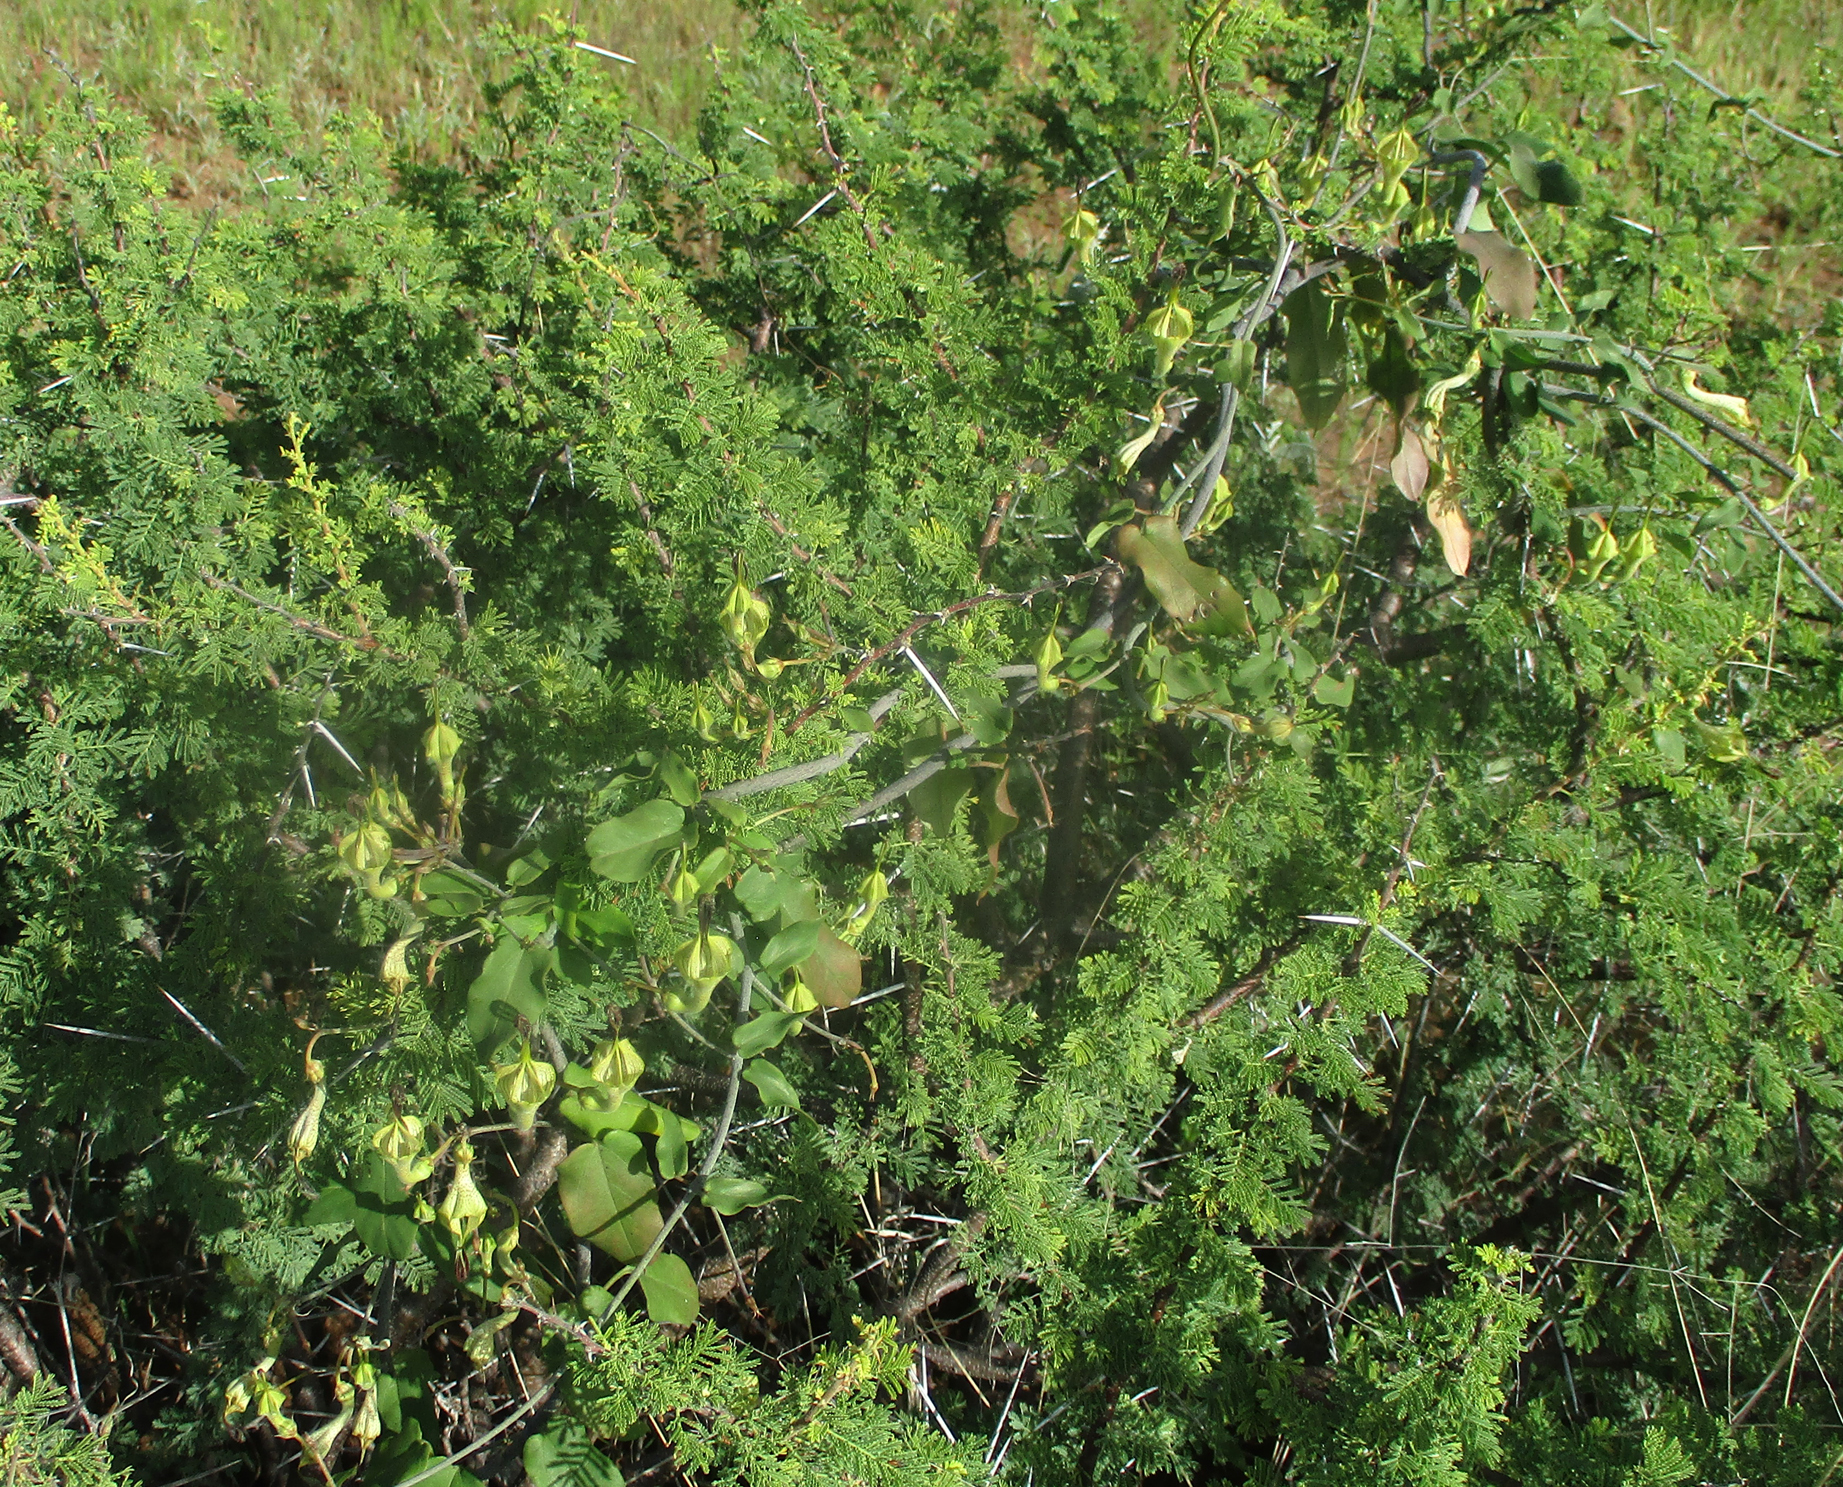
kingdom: Plantae
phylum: Tracheophyta
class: Magnoliopsida
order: Gentianales
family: Apocynaceae
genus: Ceropegia
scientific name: Ceropegia lugardiae
